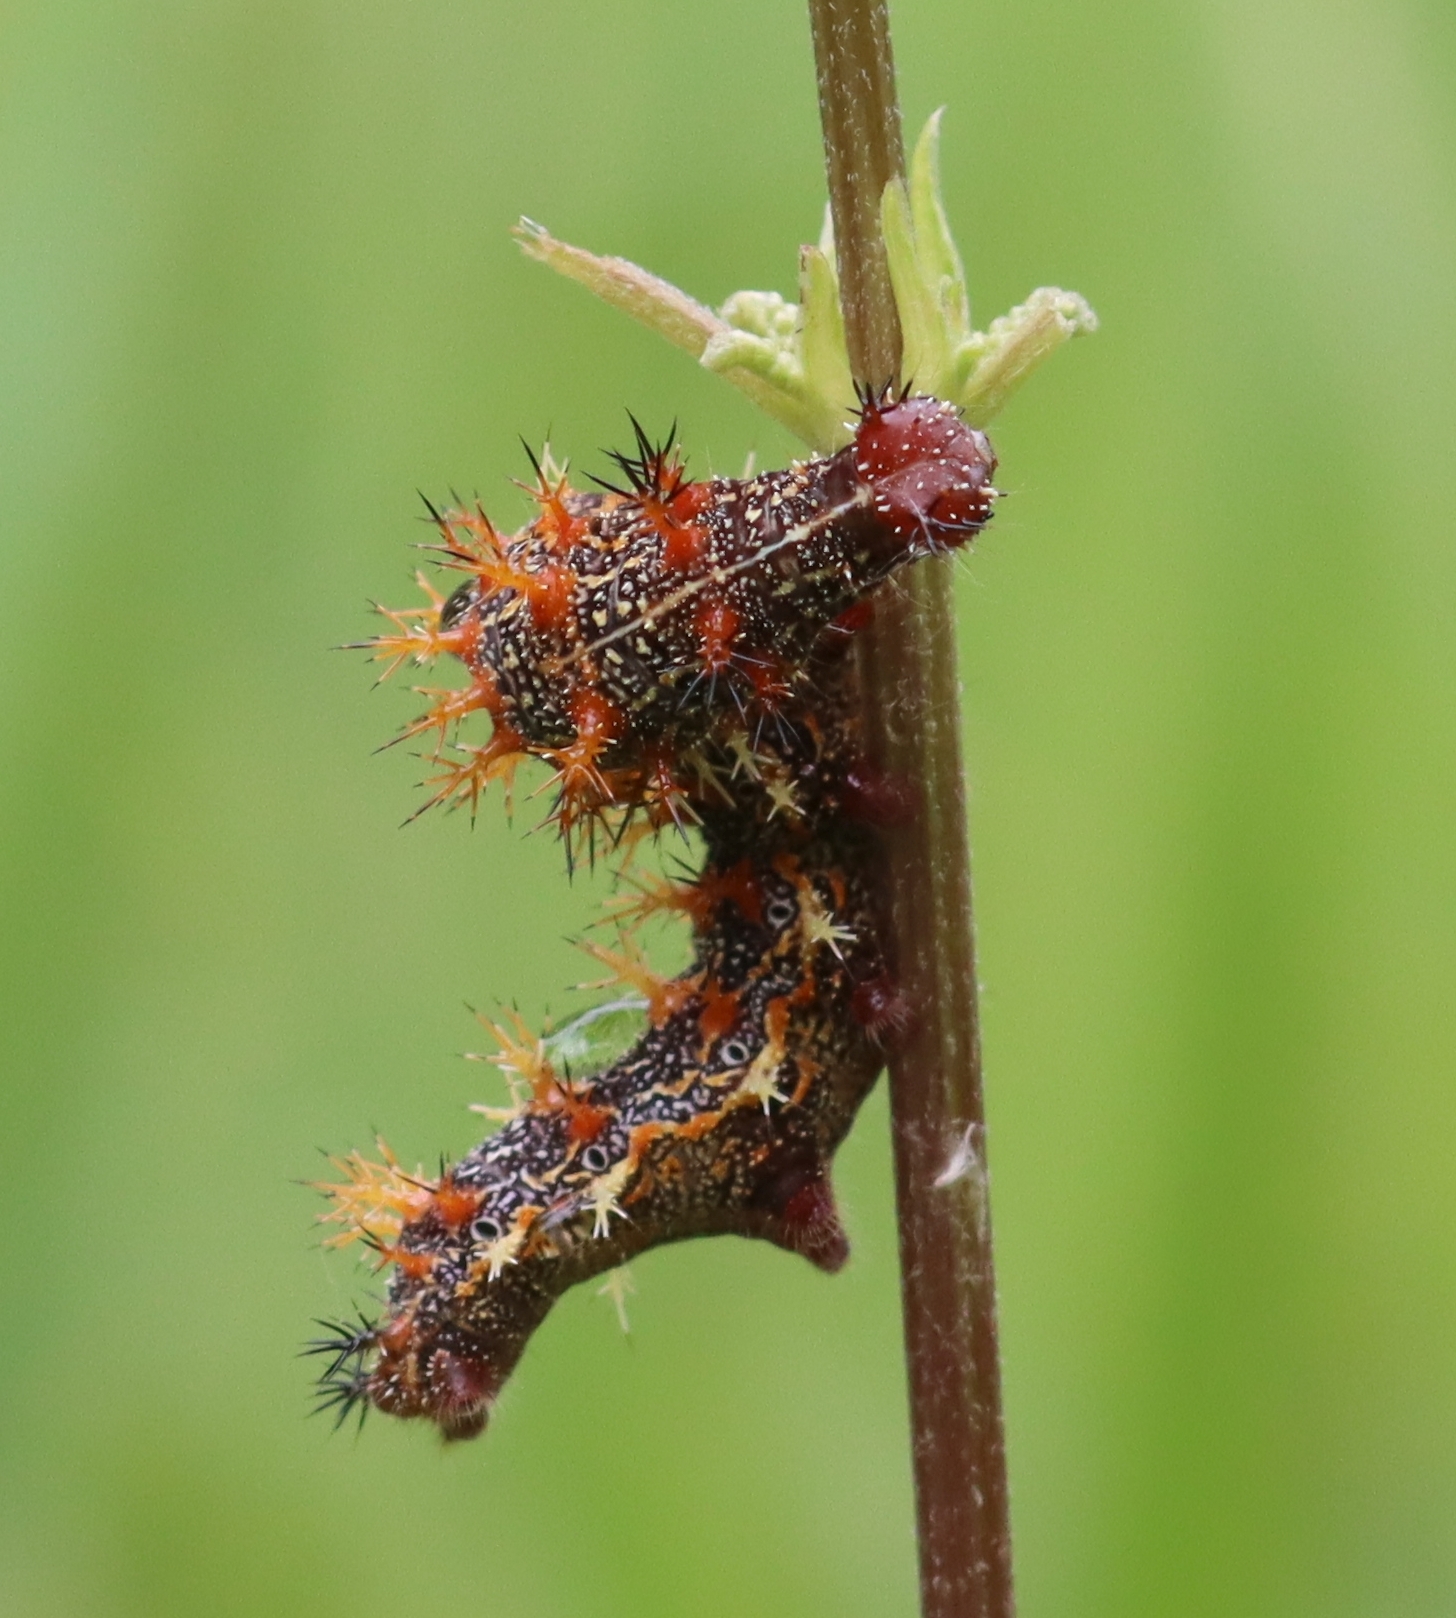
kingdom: Animalia
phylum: Arthropoda
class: Insecta
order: Lepidoptera
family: Nymphalidae
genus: Polygonia
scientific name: Polygonia interrogationis
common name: Question mark
